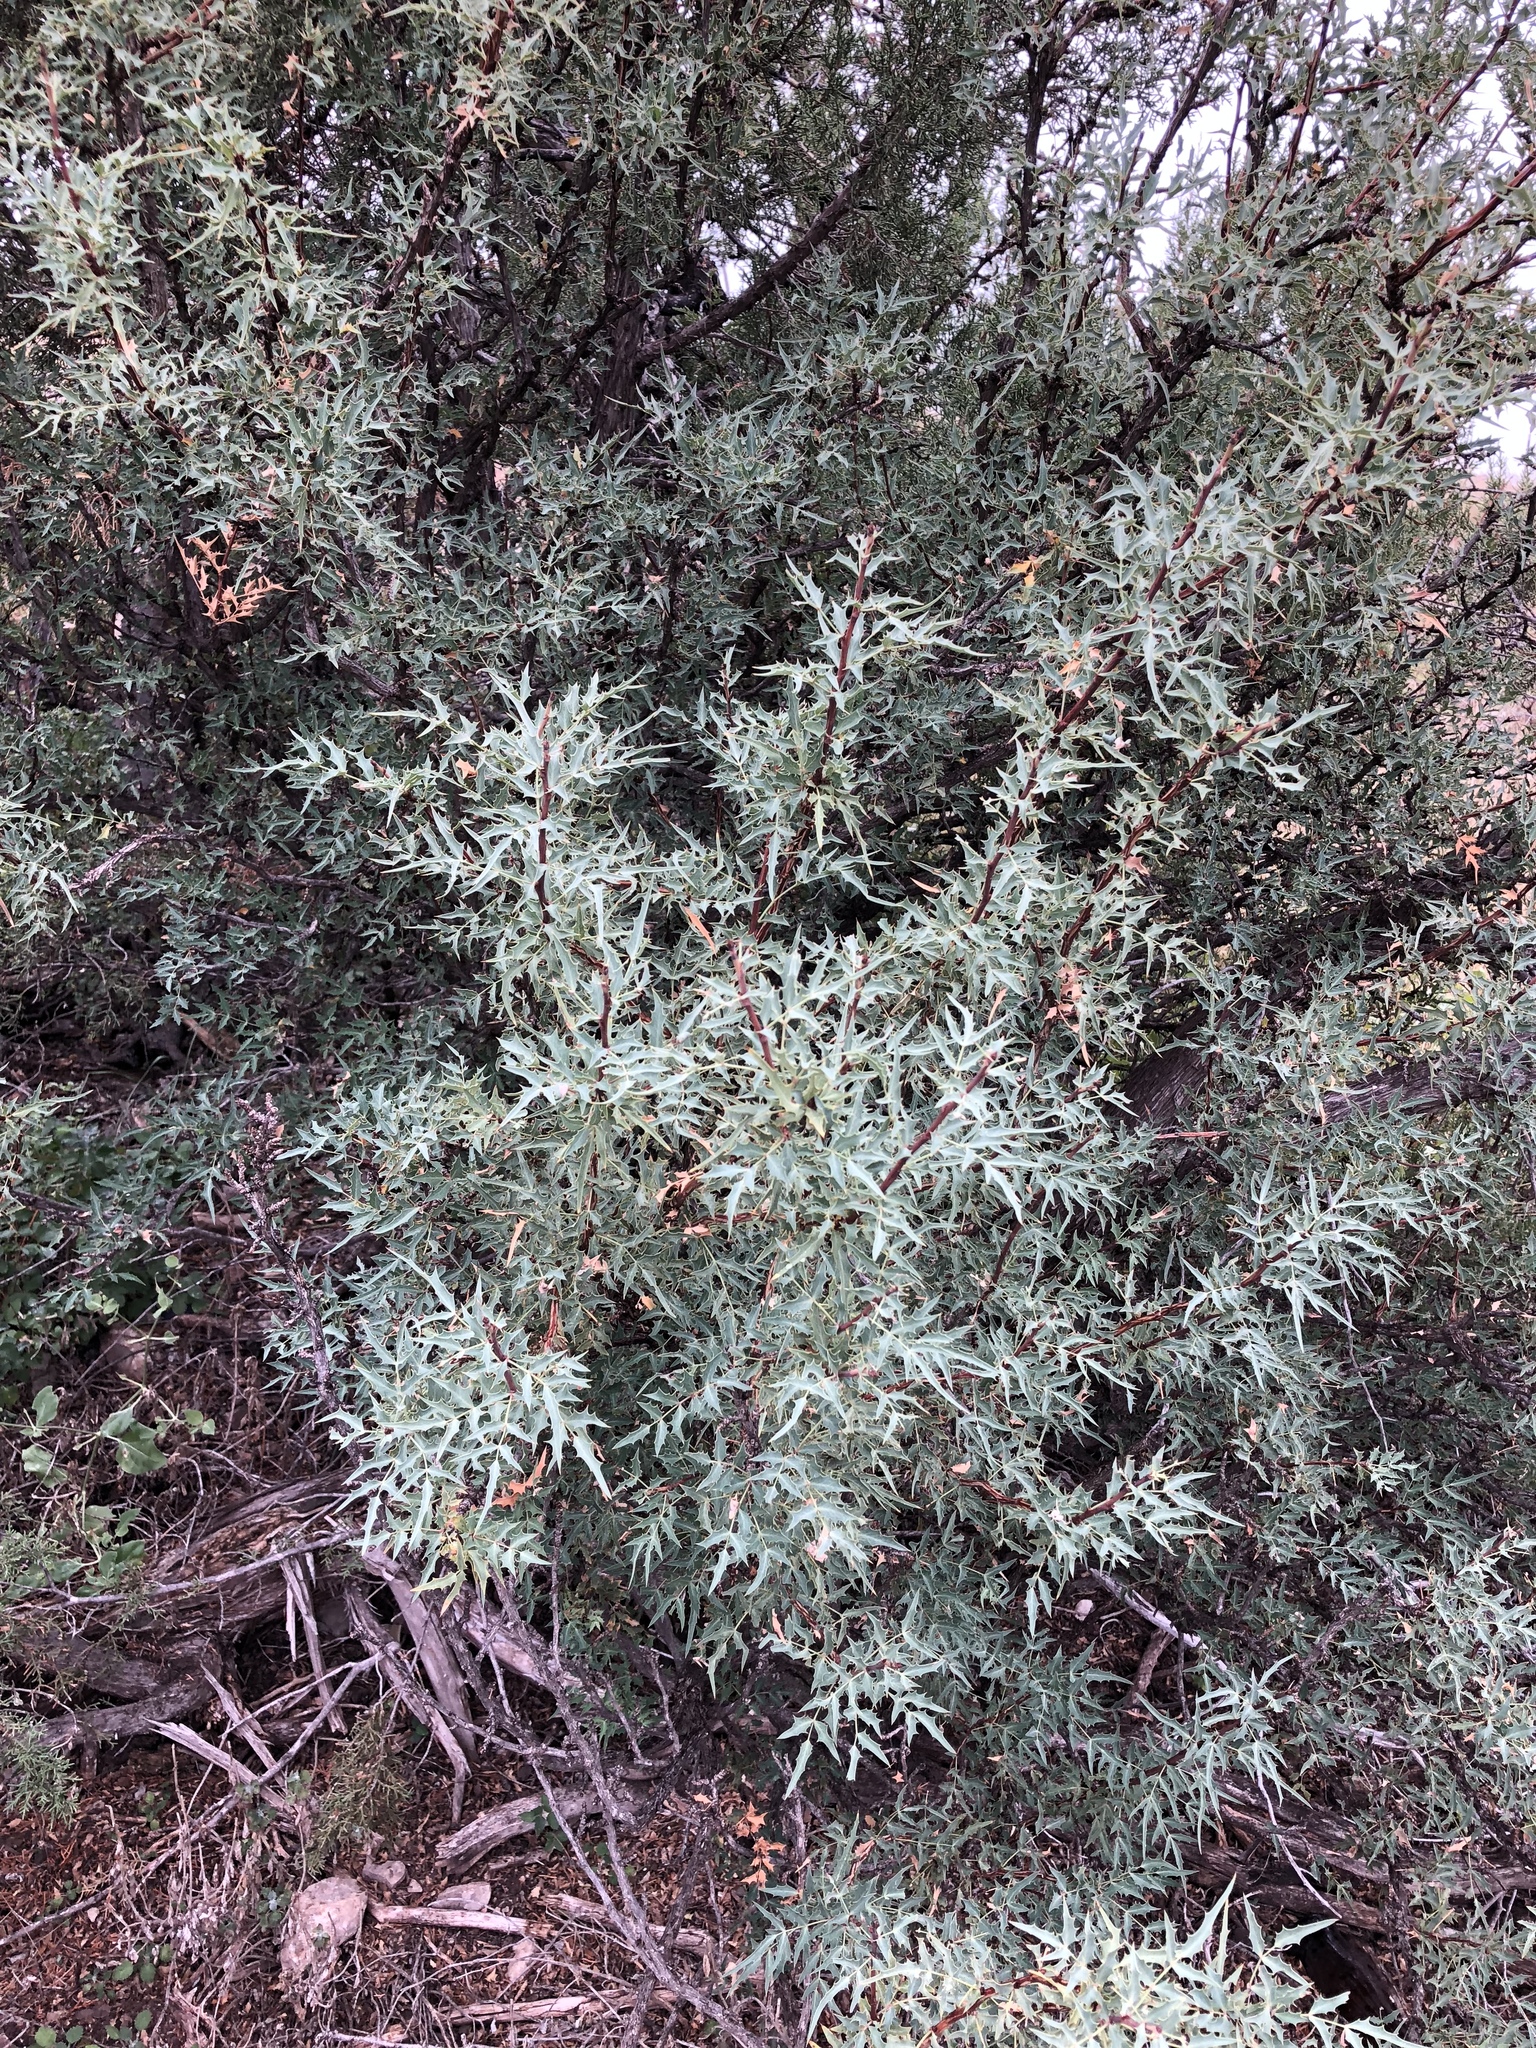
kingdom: Plantae
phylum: Tracheophyta
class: Magnoliopsida
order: Ranunculales
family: Berberidaceae
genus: Alloberberis
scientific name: Alloberberis trifoliolata
